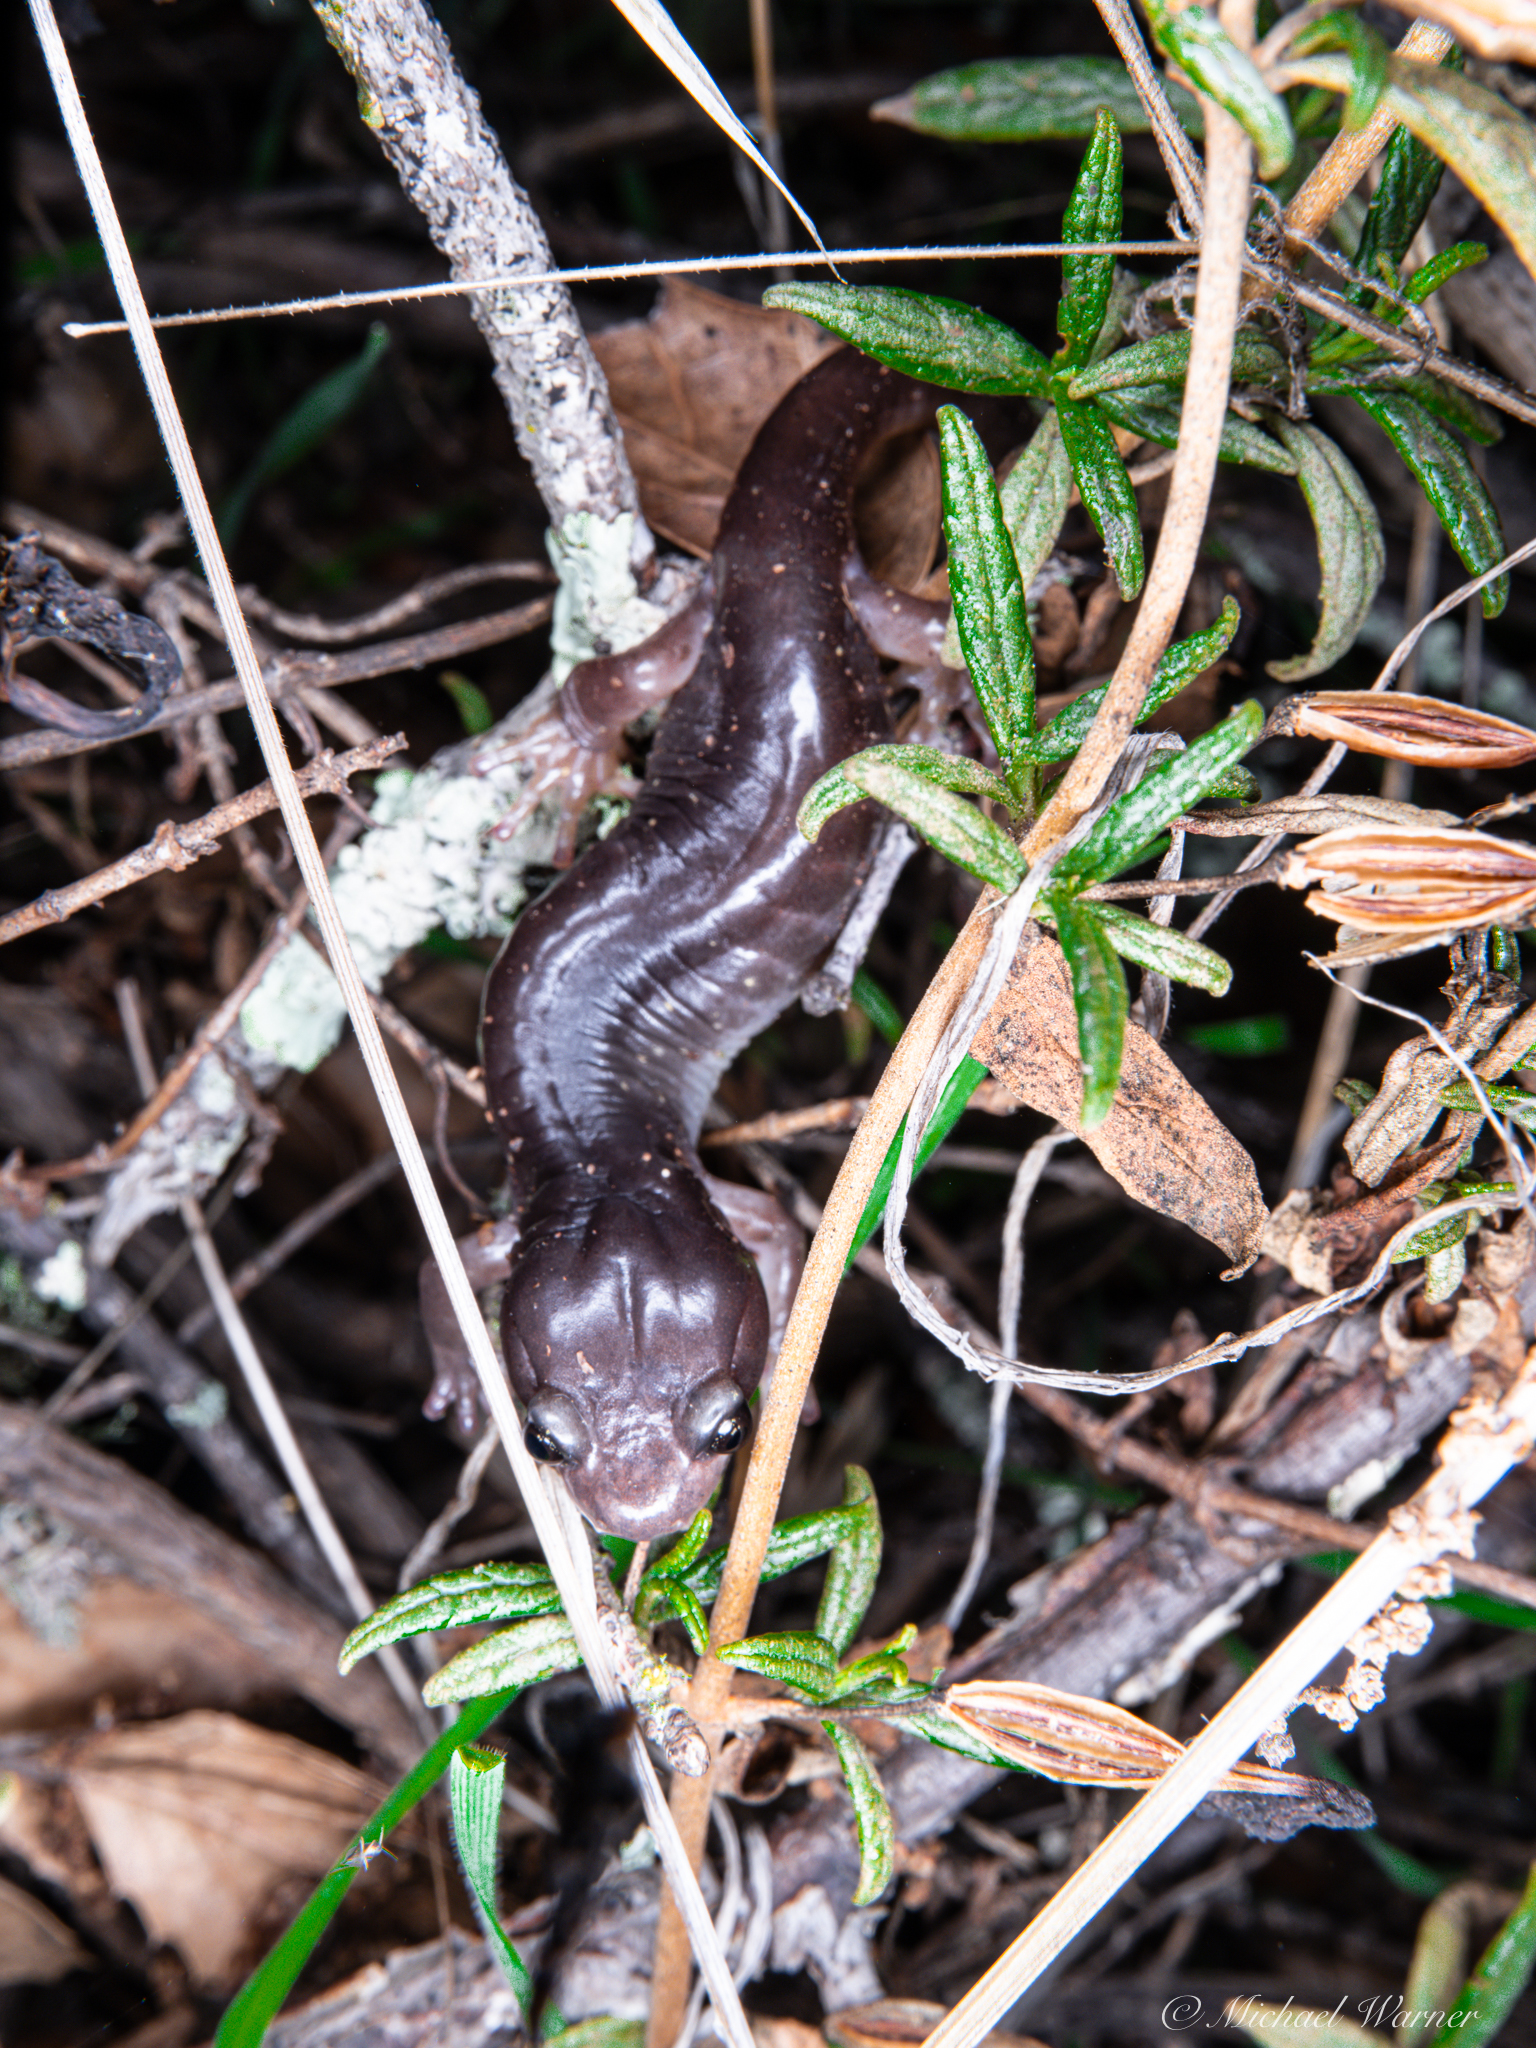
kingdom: Animalia
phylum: Chordata
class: Amphibia
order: Caudata
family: Plethodontidae
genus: Aneides
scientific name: Aneides lugubris
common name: Arboreal salamander
